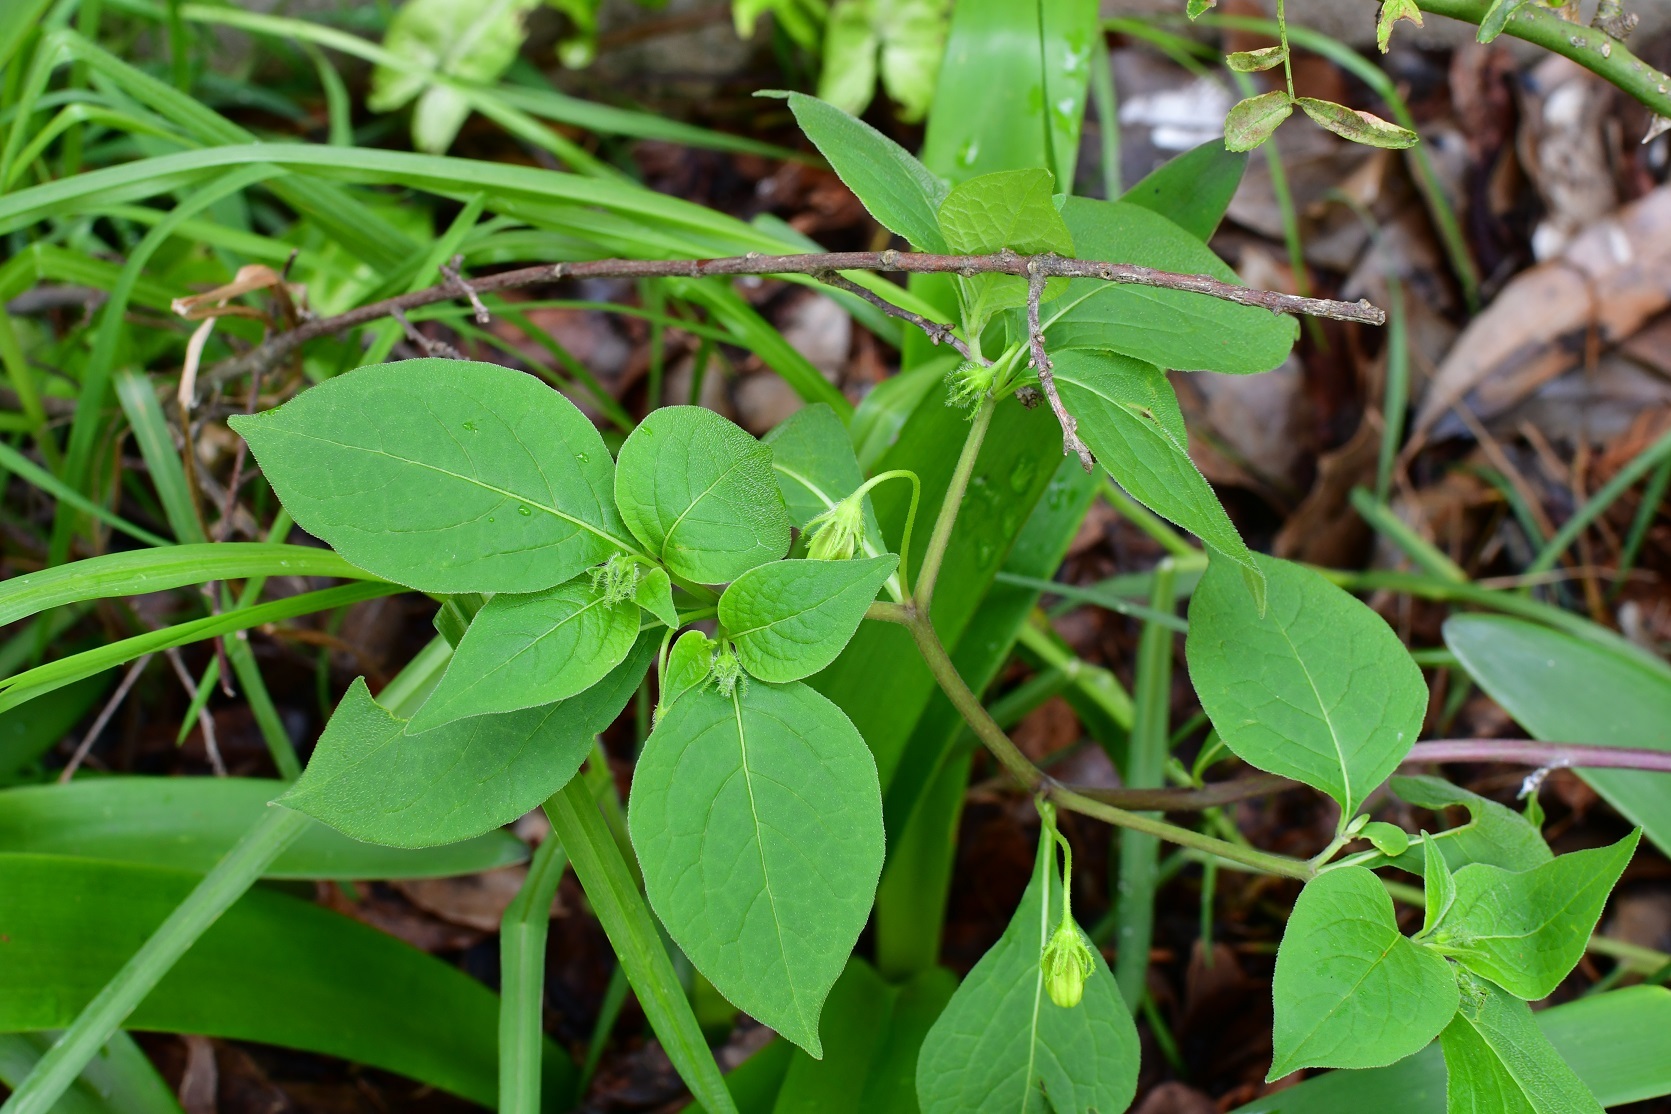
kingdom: Plantae
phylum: Tracheophyta
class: Magnoliopsida
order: Solanales
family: Solanaceae
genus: Lycianthes
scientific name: Lycianthes ciliolata
